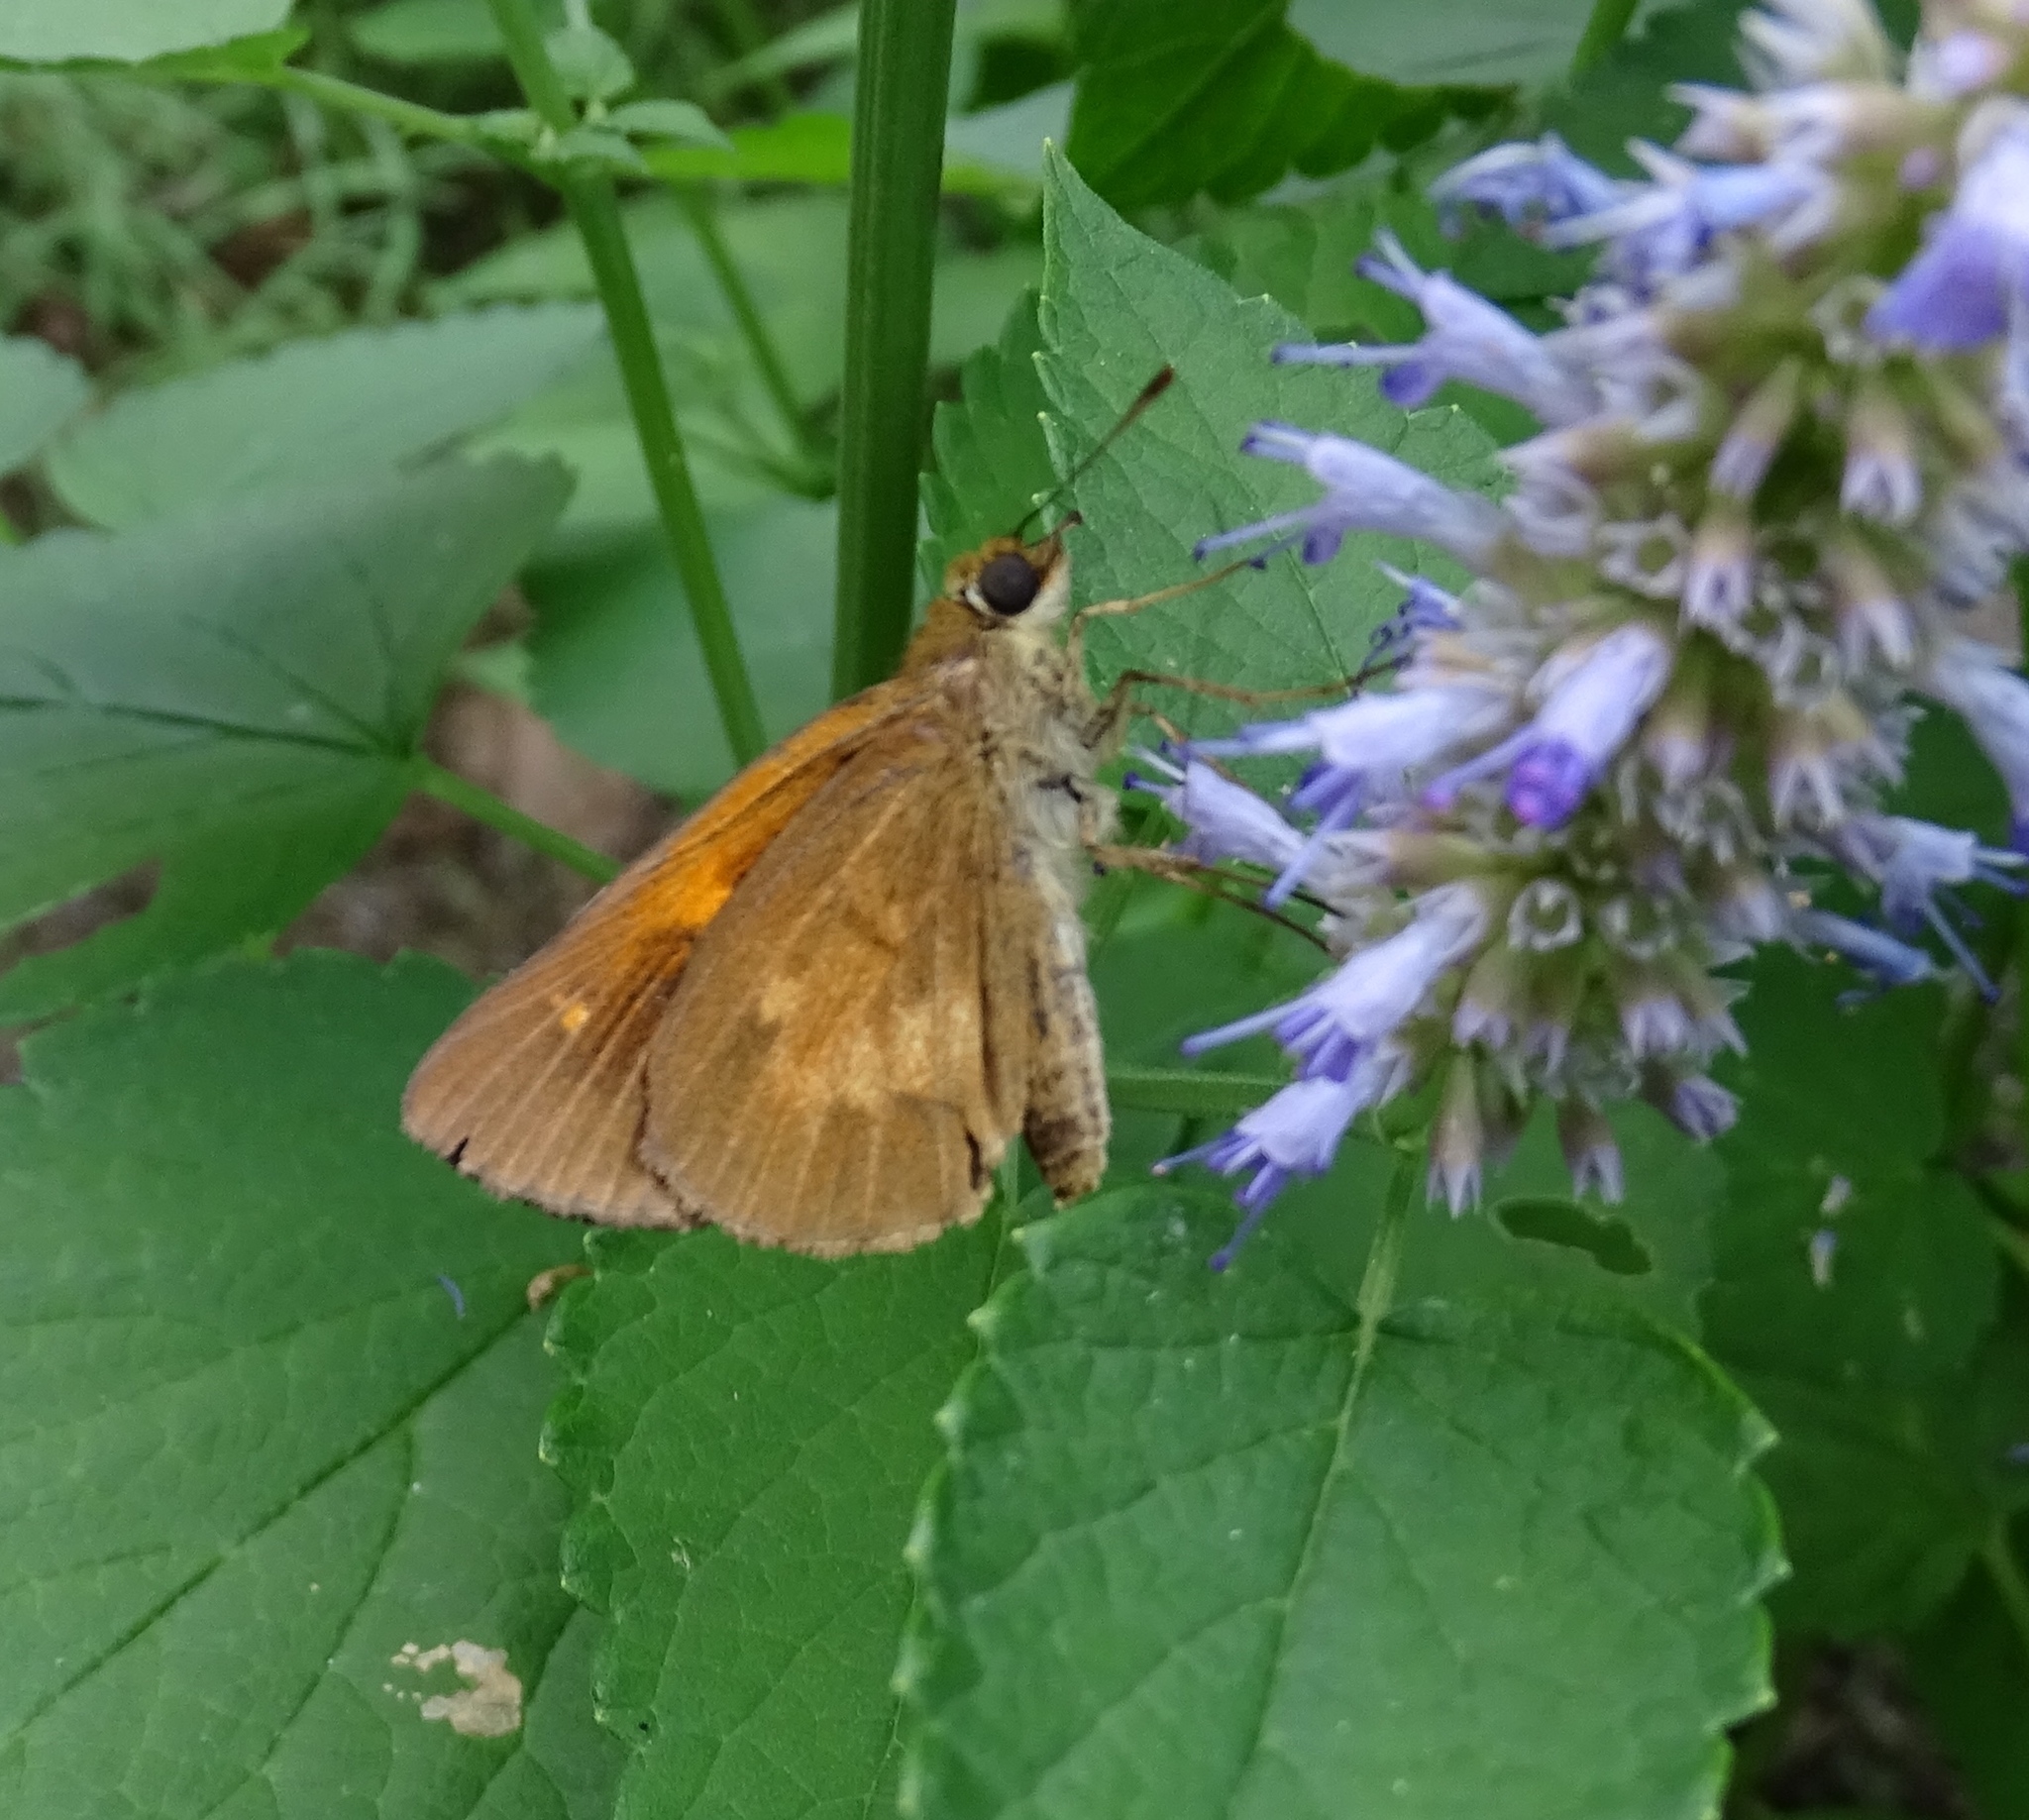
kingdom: Animalia
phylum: Arthropoda
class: Insecta
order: Lepidoptera
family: Hesperiidae
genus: Poanes
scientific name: Poanes viator
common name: Broad-winged skipper
